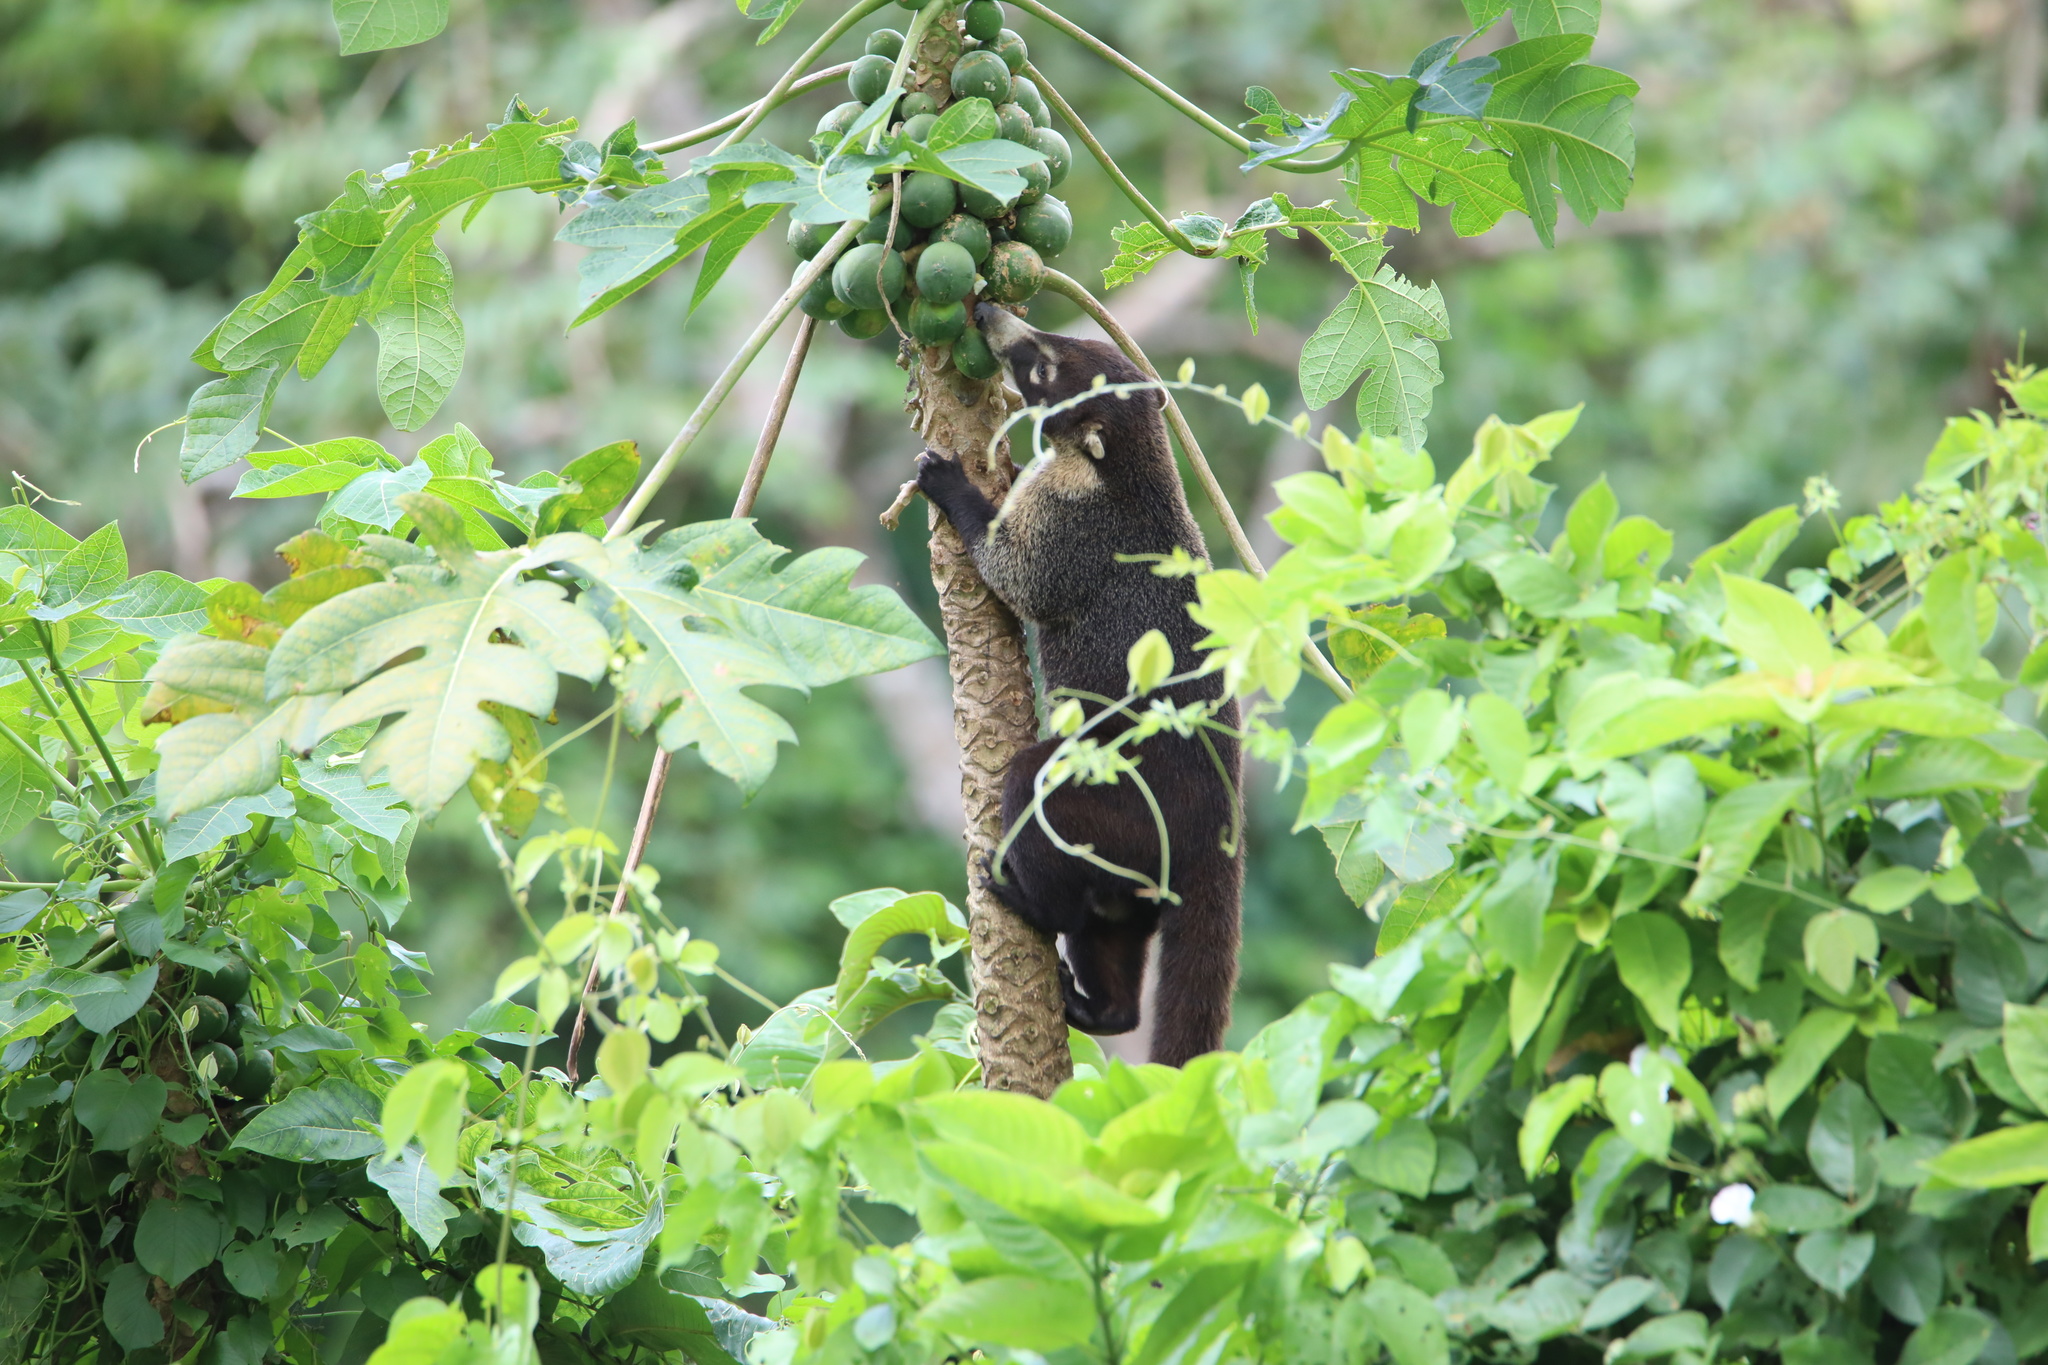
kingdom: Animalia
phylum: Chordata
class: Mammalia
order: Carnivora
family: Procyonidae
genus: Nasua
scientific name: Nasua narica
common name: White-nosed coati
